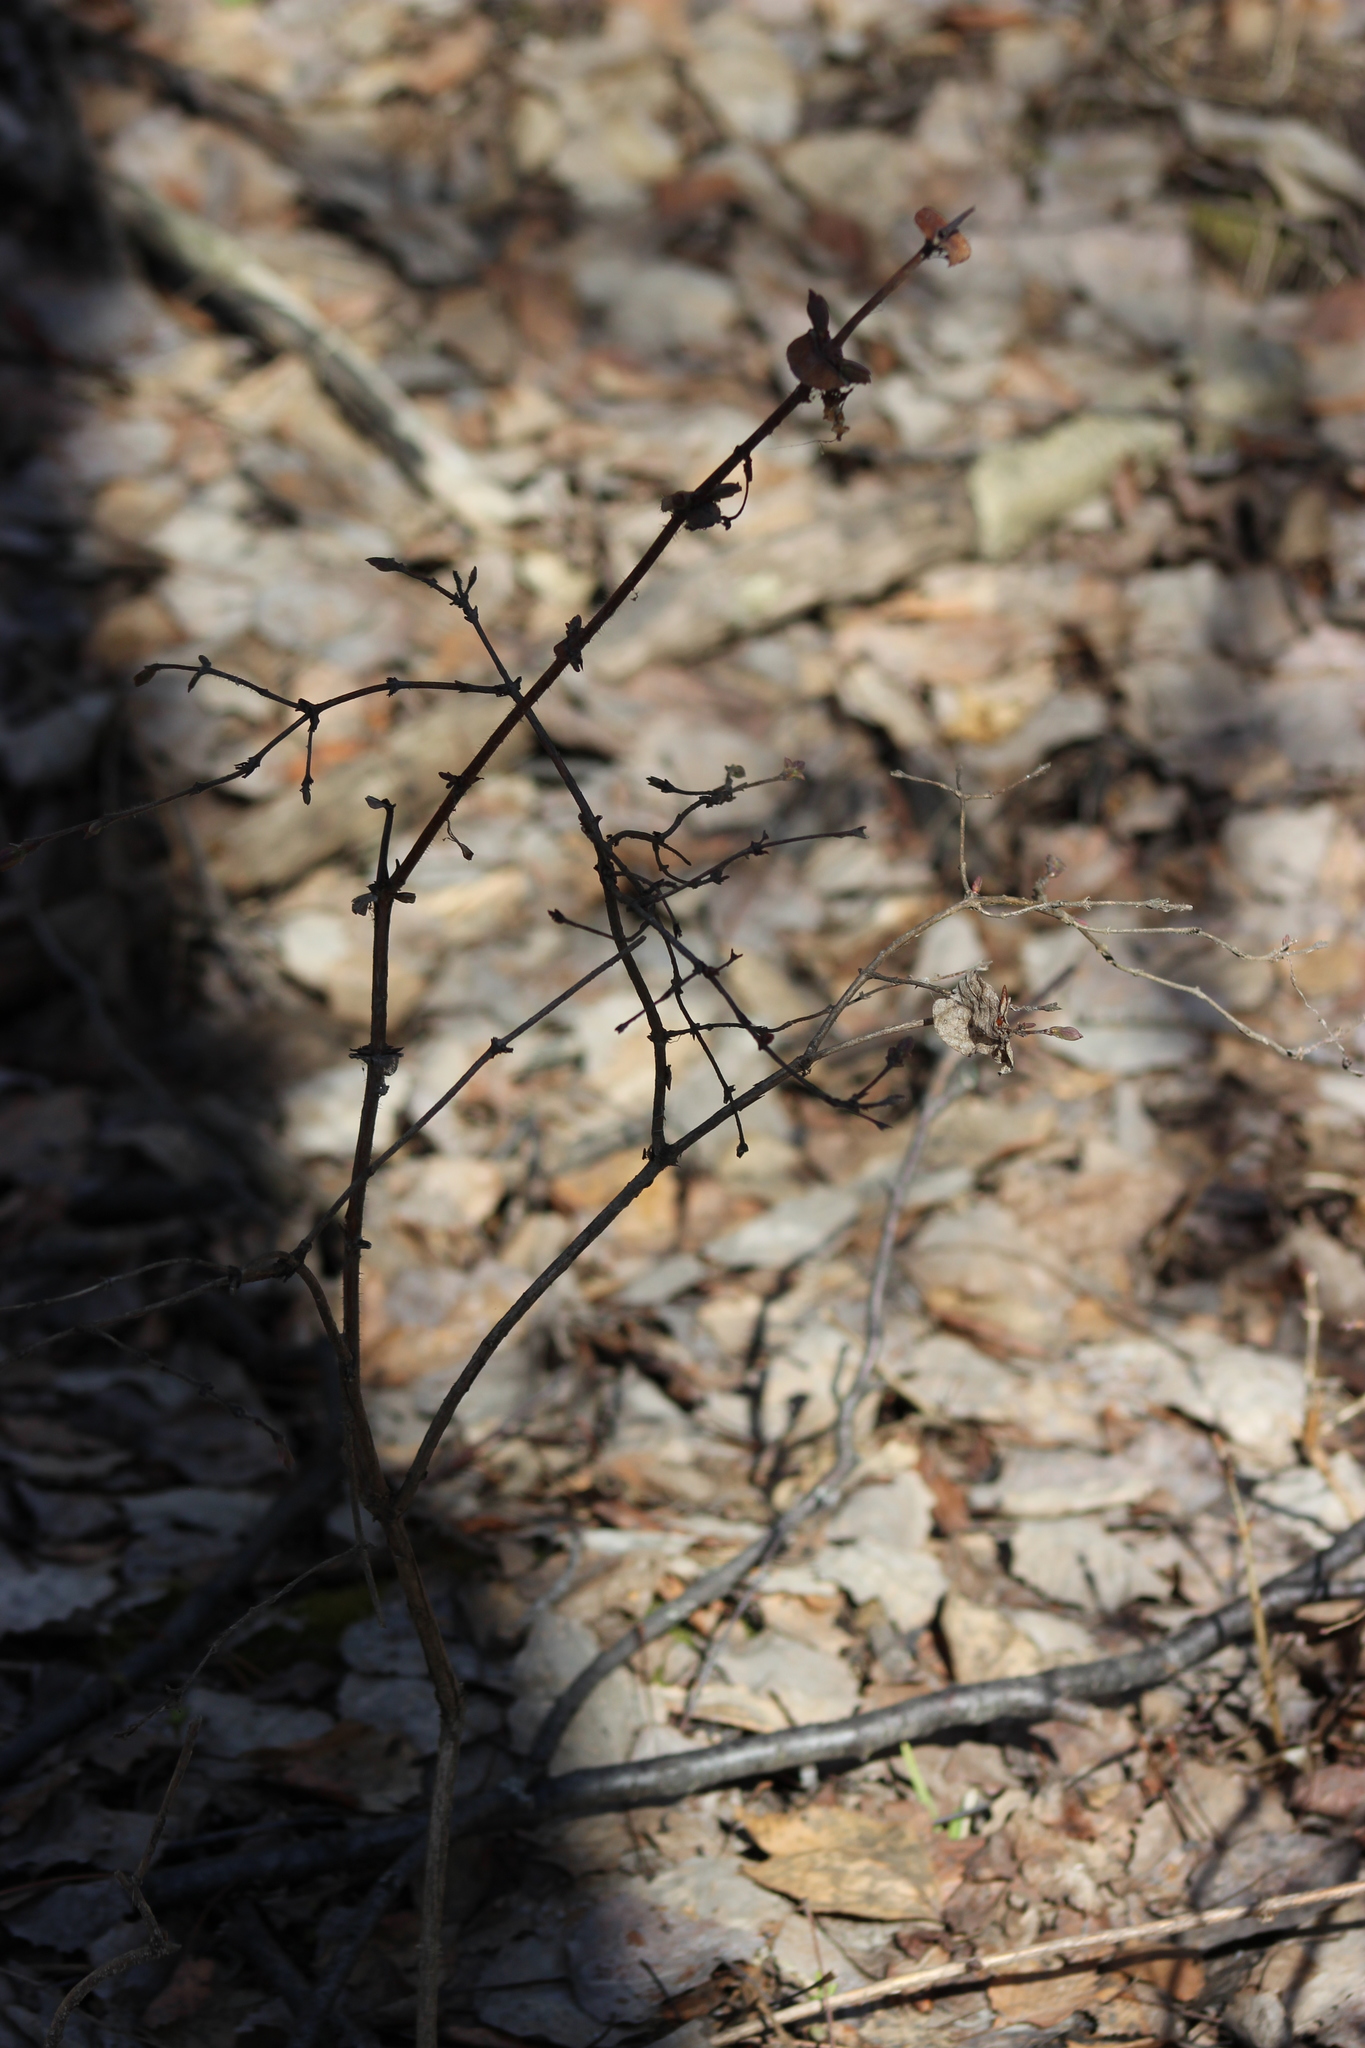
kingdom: Plantae
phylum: Tracheophyta
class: Magnoliopsida
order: Dipsacales
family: Caprifoliaceae
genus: Lonicera
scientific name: Lonicera caerulea
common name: Blue honeysuckle
